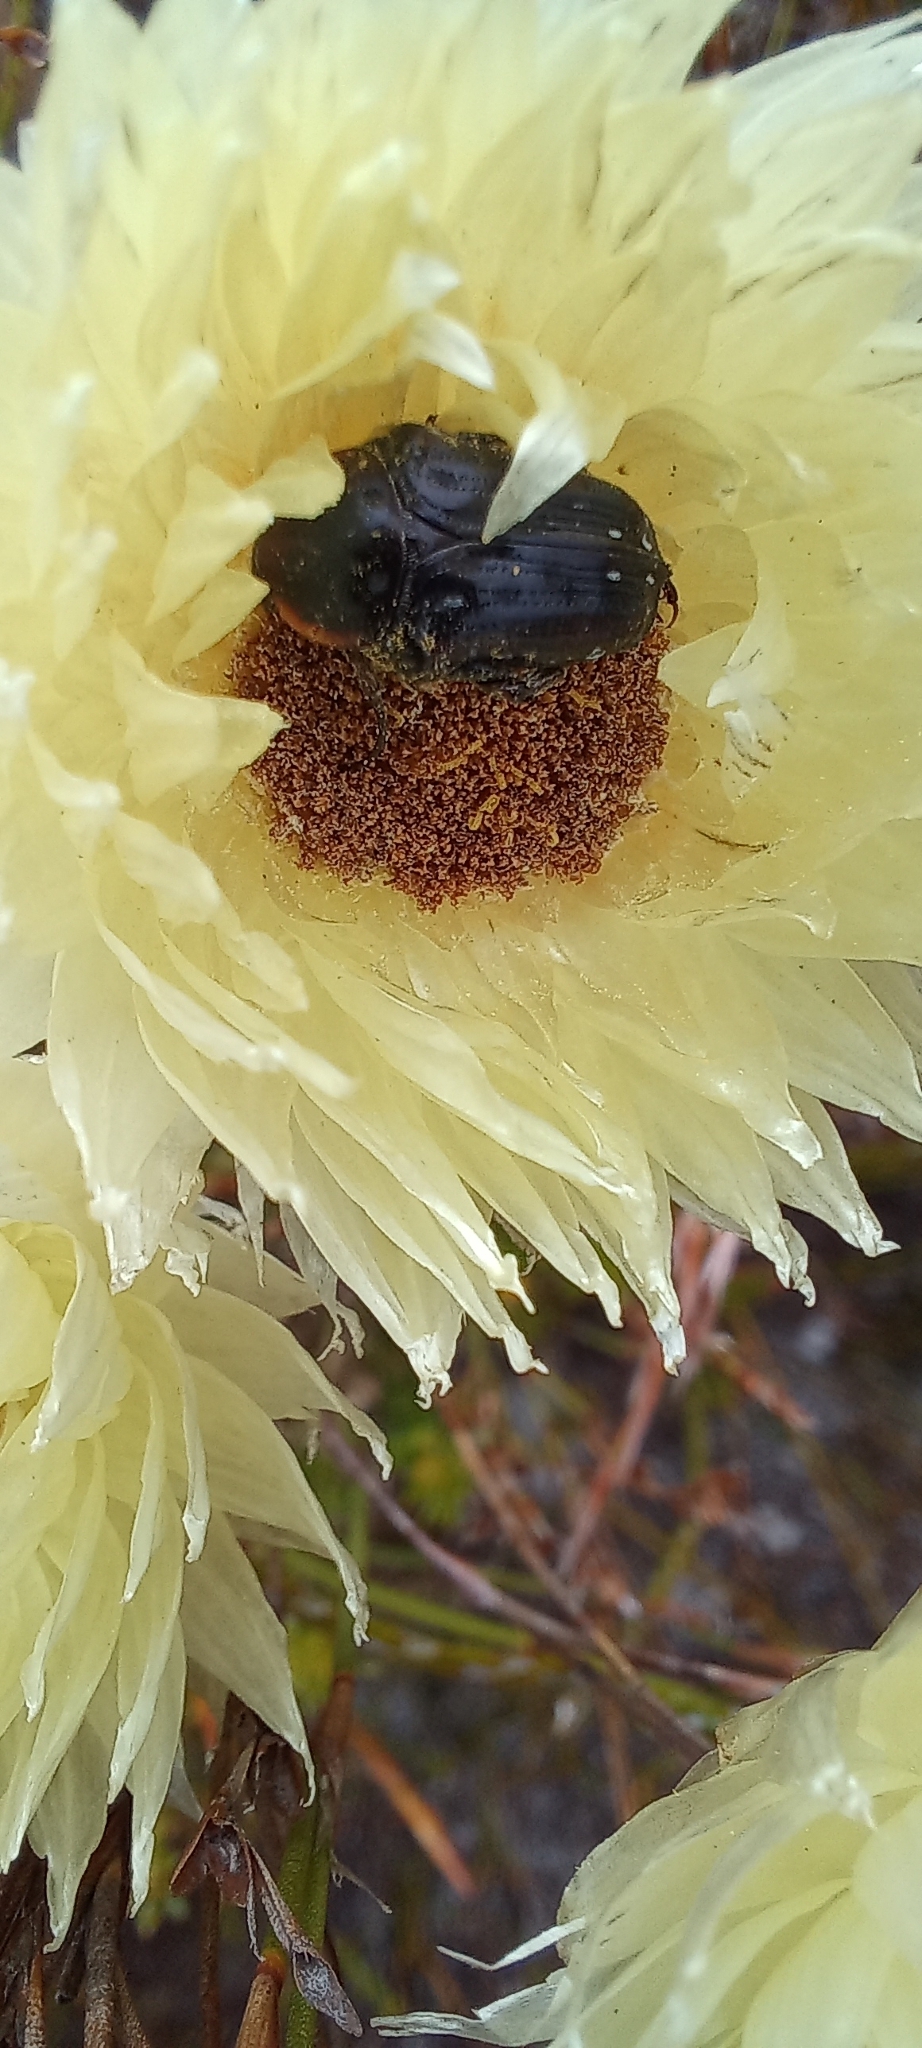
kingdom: Animalia
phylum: Arthropoda
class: Insecta
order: Coleoptera
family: Scarabaeidae
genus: Oxythyrea
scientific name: Oxythyrea
